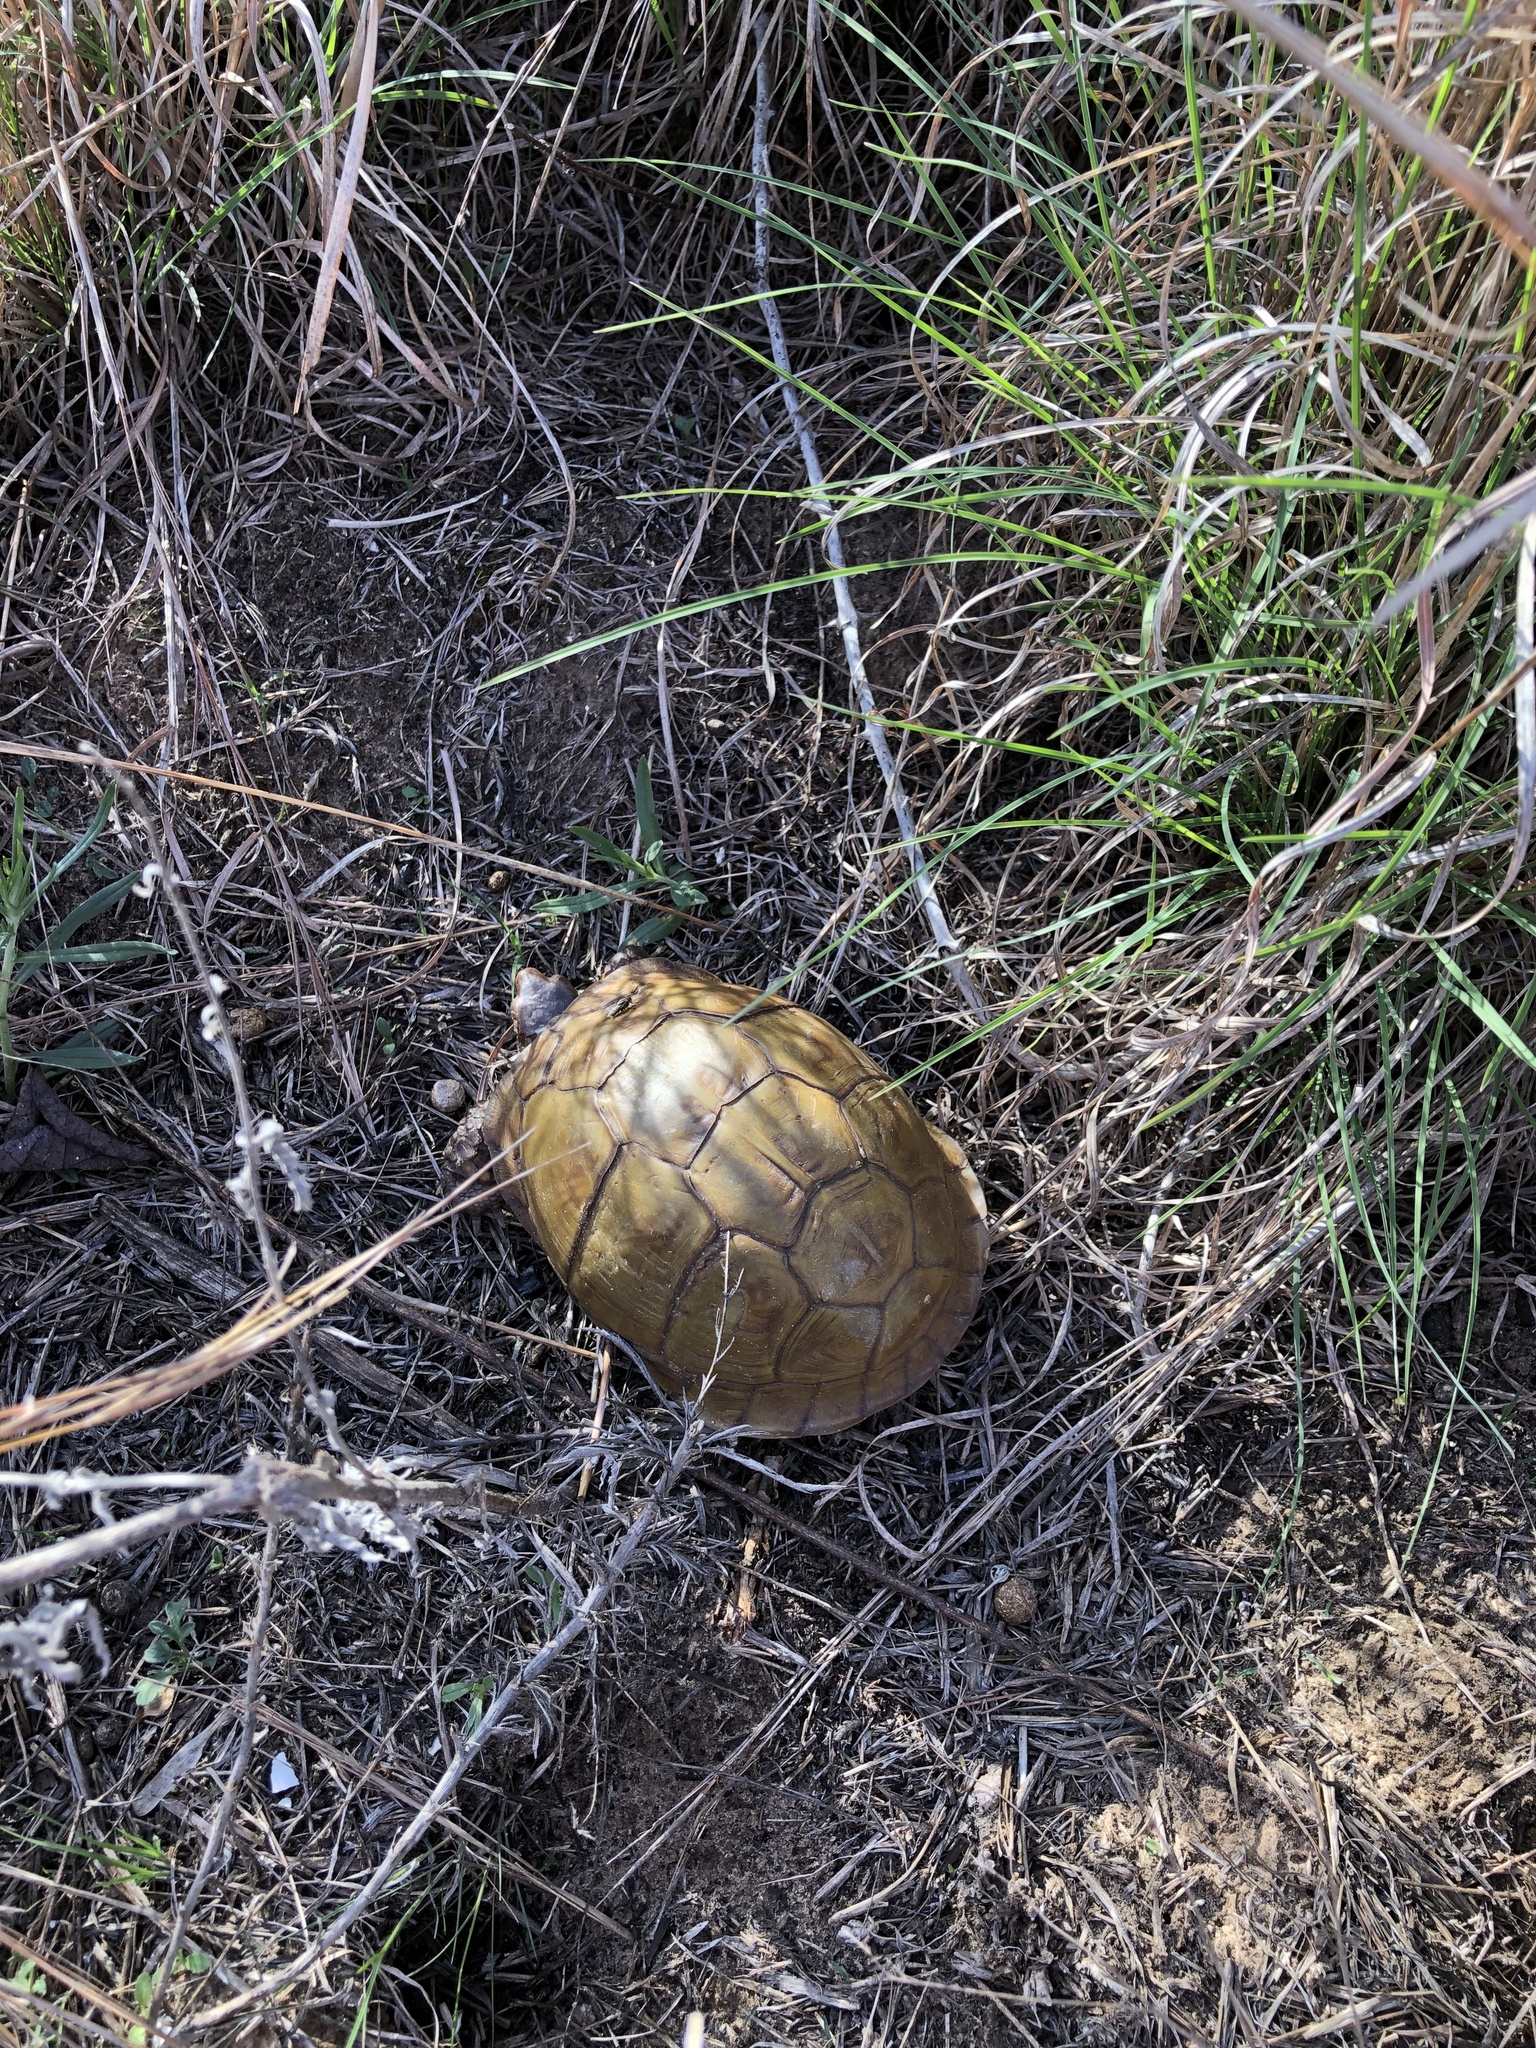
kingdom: Animalia
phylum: Chordata
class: Testudines
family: Emydidae
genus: Terrapene
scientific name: Terrapene carolina
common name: Common box turtle
